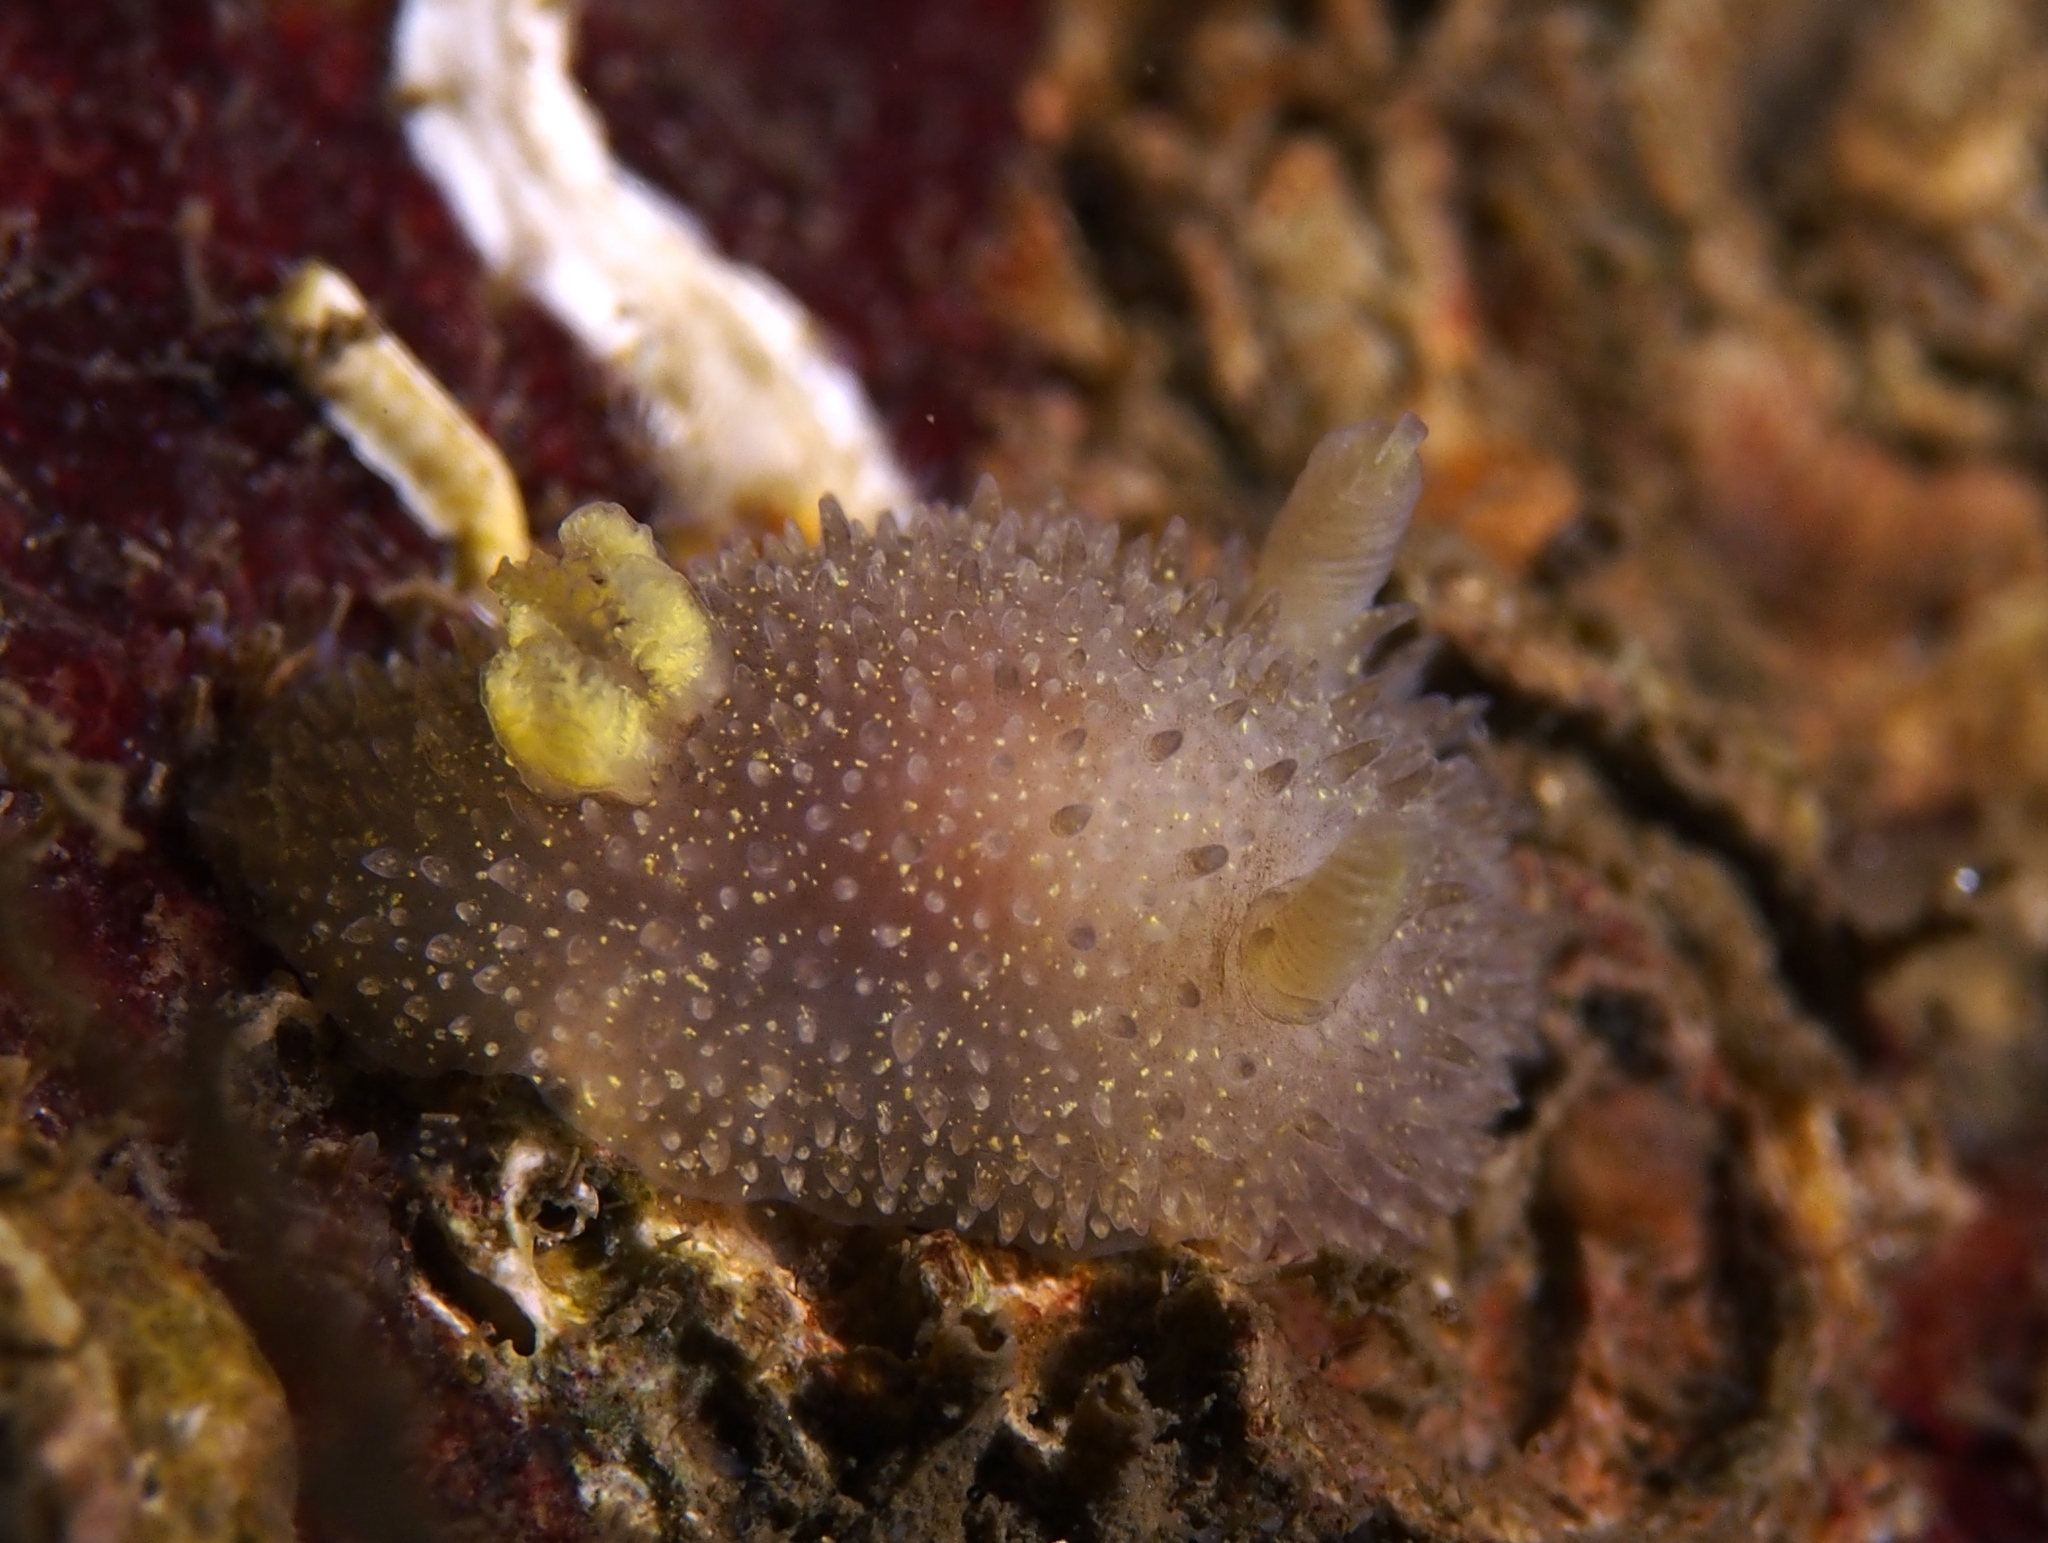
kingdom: Animalia
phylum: Mollusca
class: Gastropoda
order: Nudibranchia
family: Onchidorididae
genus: Acanthodoris
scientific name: Acanthodoris pilosa
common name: Hairy spiny doris
